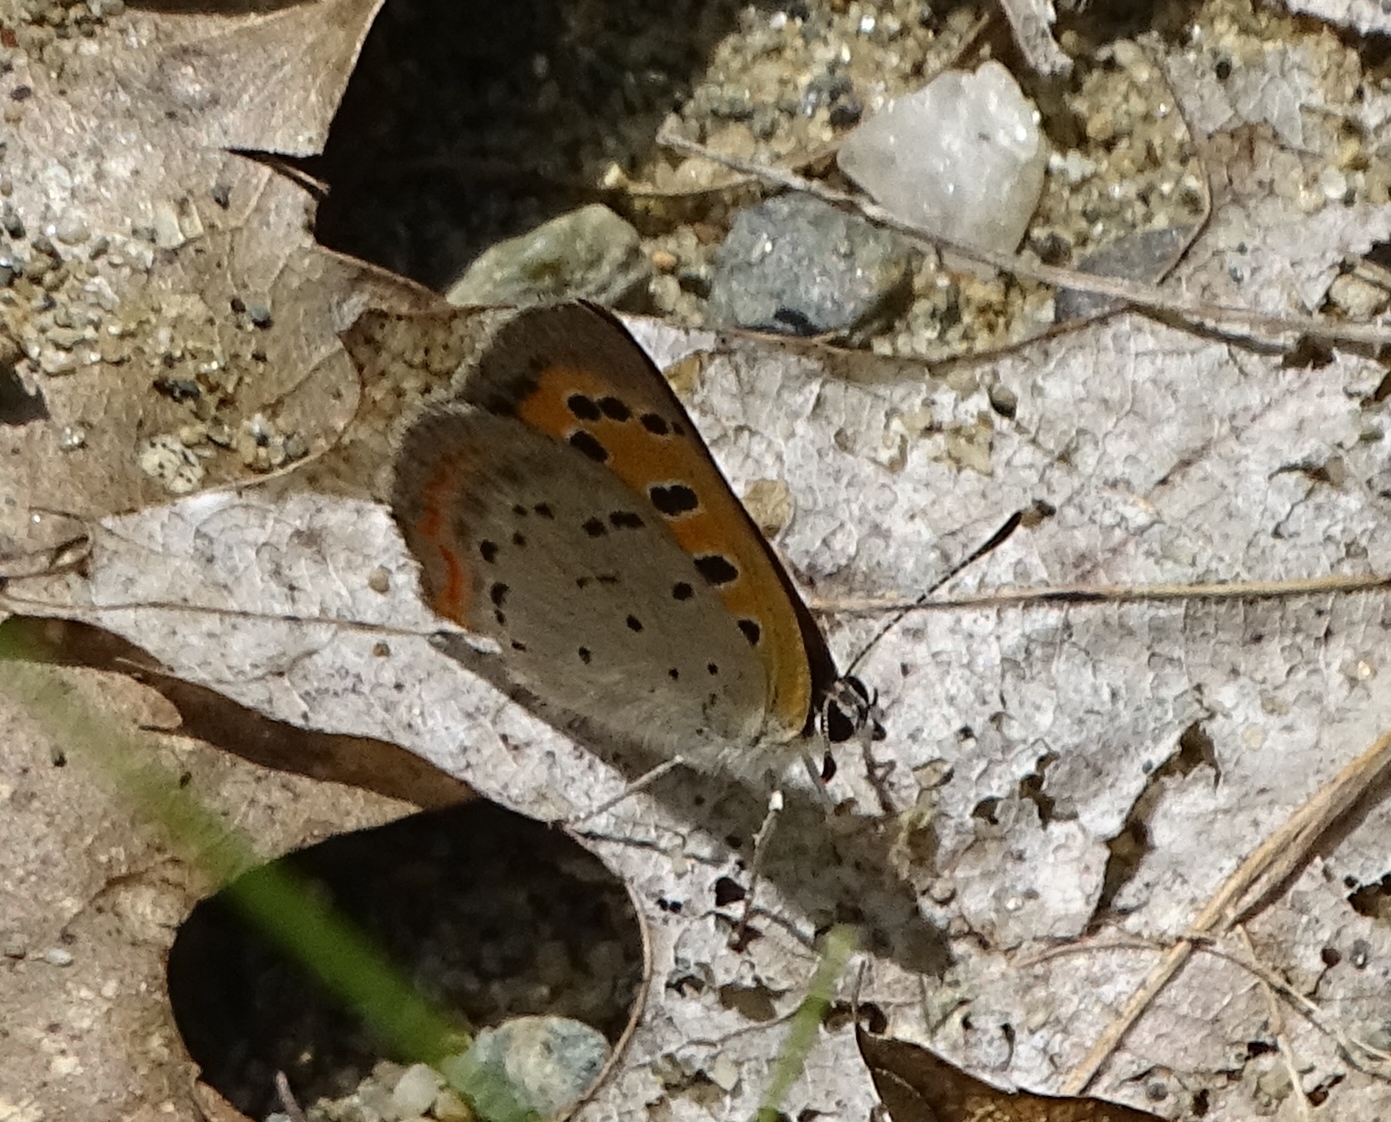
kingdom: Animalia
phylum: Arthropoda
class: Insecta
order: Lepidoptera
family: Lycaenidae
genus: Lycaena
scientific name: Lycaena hypophlaeas
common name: American copper
